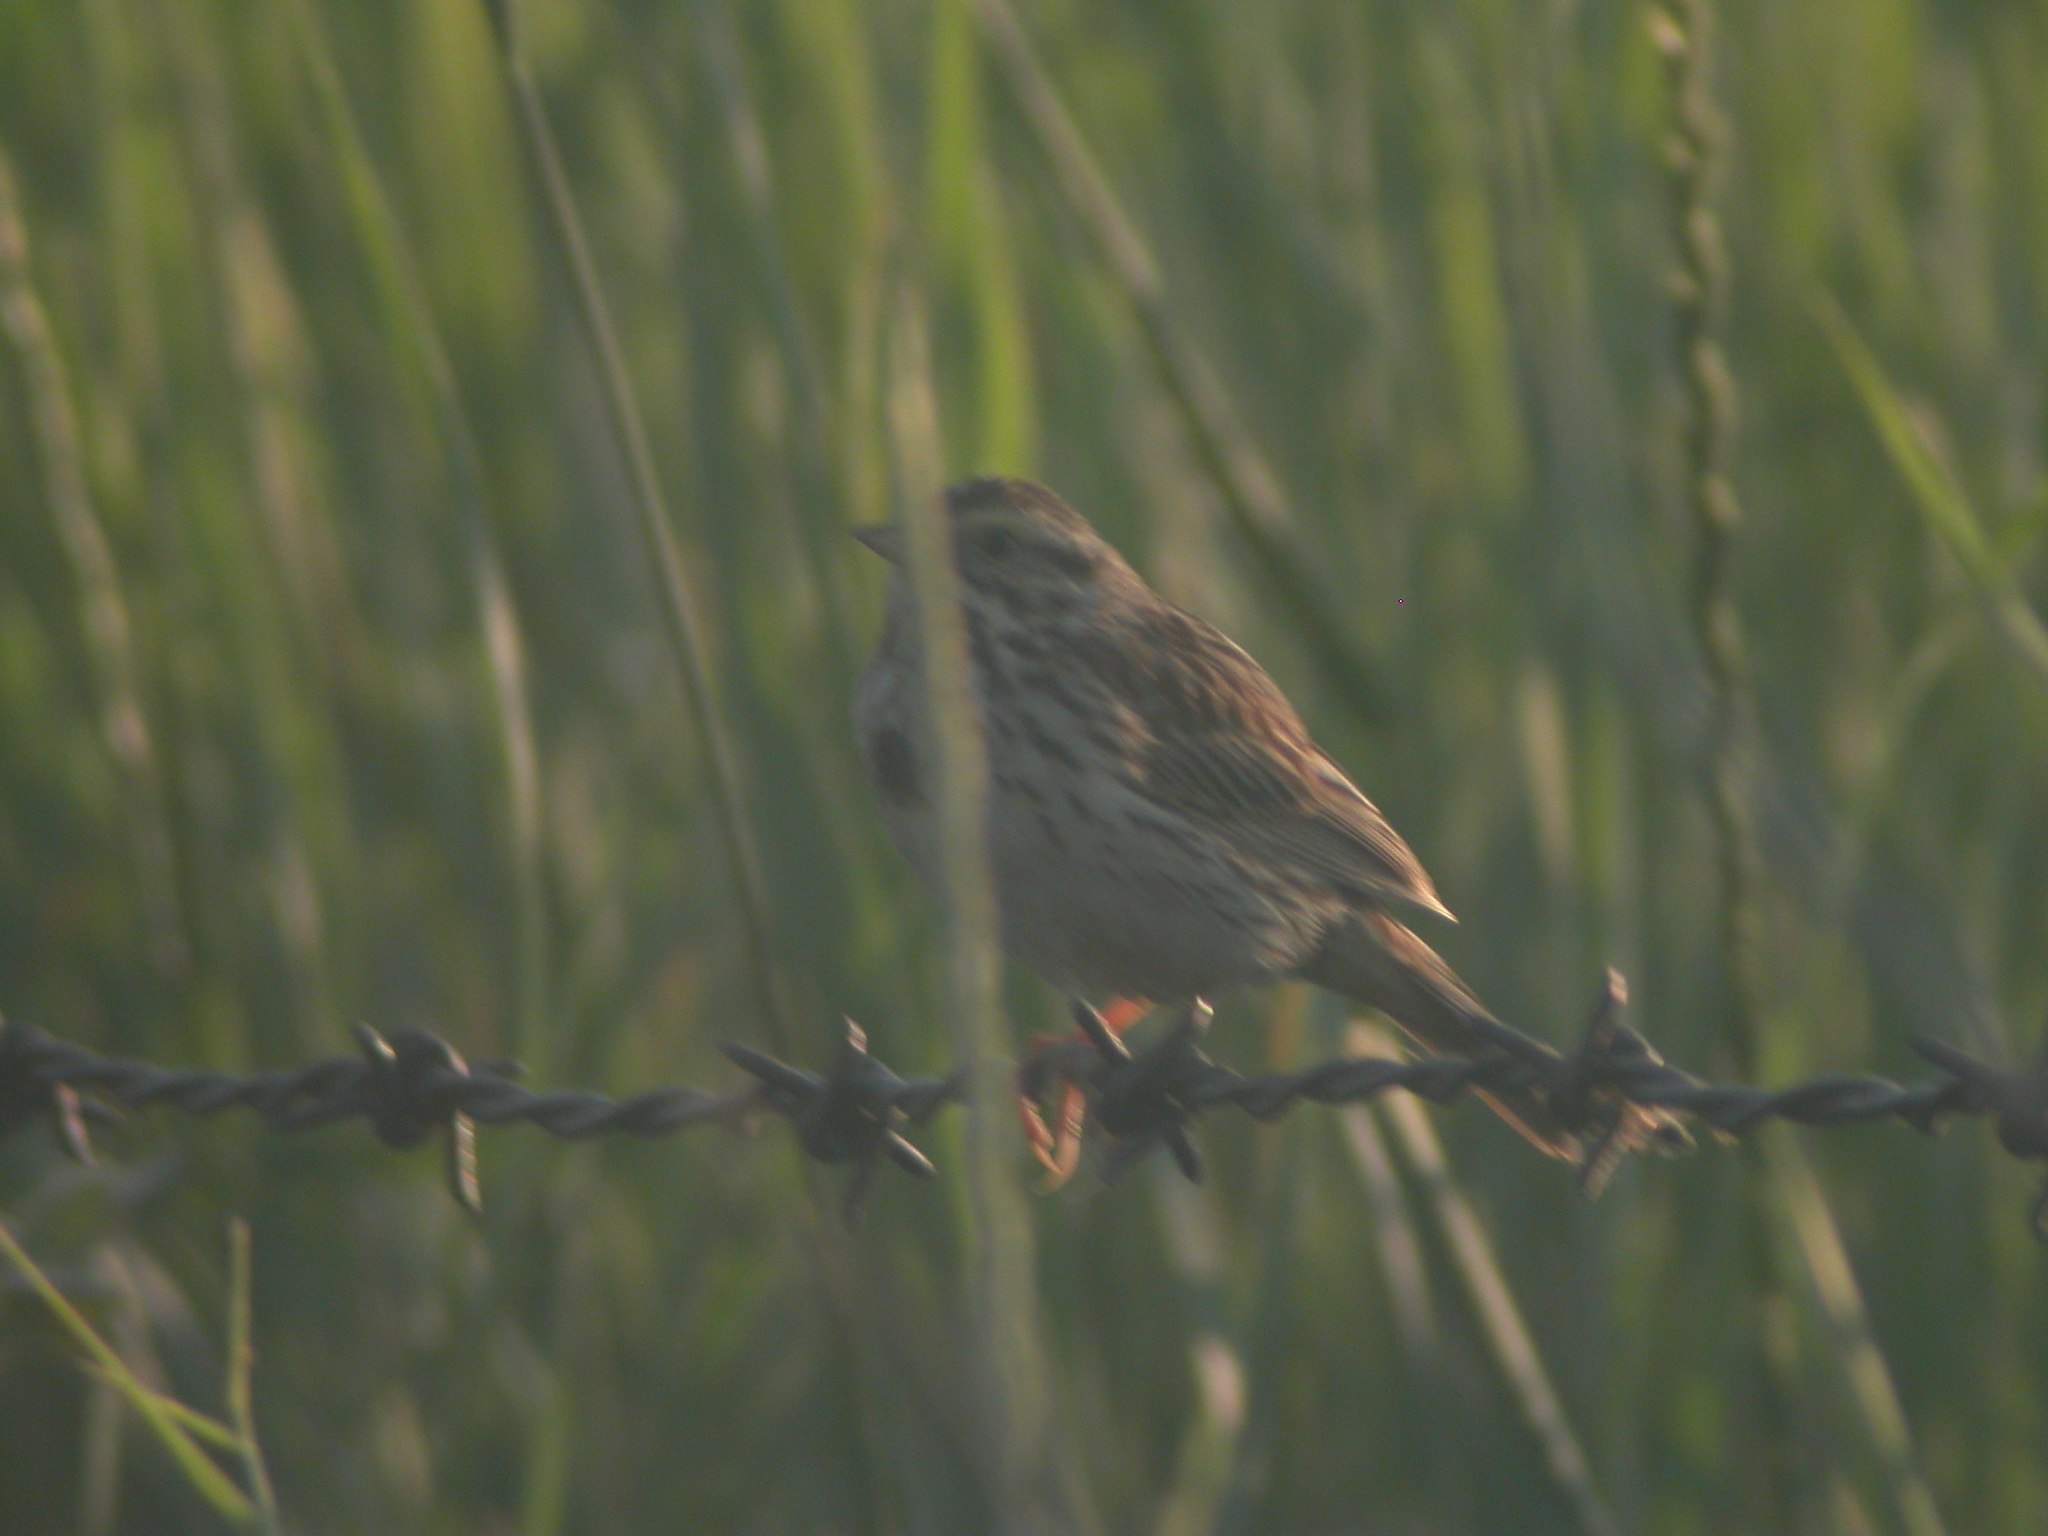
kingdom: Animalia
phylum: Chordata
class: Aves
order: Passeriformes
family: Passerellidae
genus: Passerculus
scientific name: Passerculus sandwichensis
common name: Savannah sparrow
